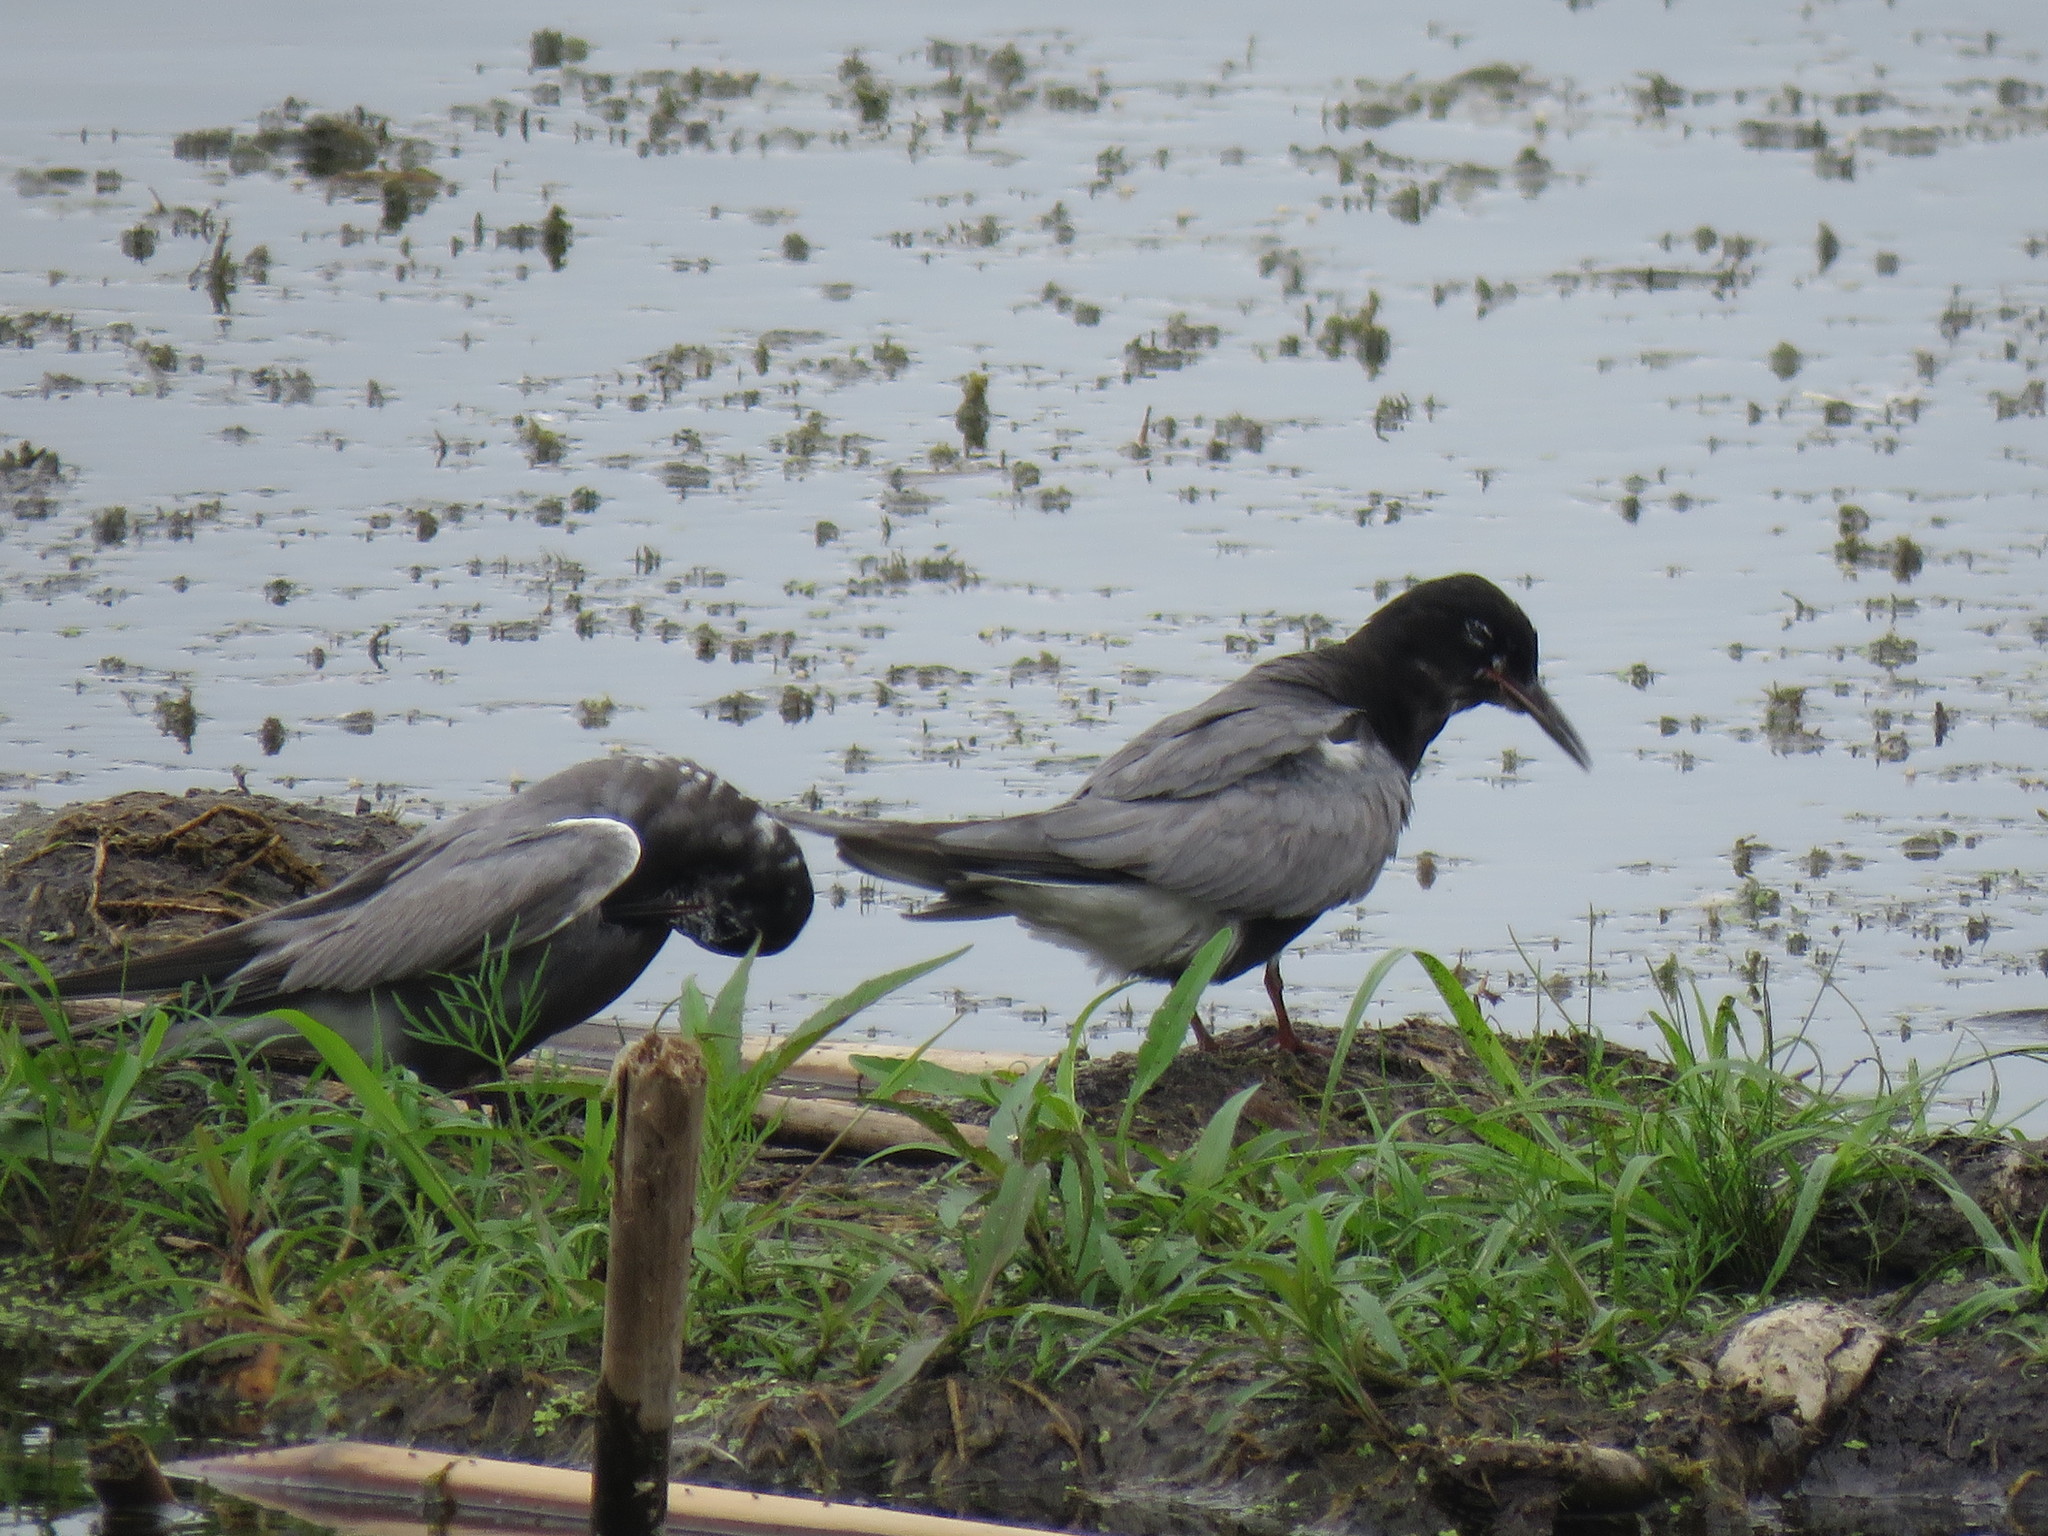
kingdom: Animalia
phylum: Chordata
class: Aves
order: Charadriiformes
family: Laridae
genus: Chlidonias
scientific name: Chlidonias niger
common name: Black tern
